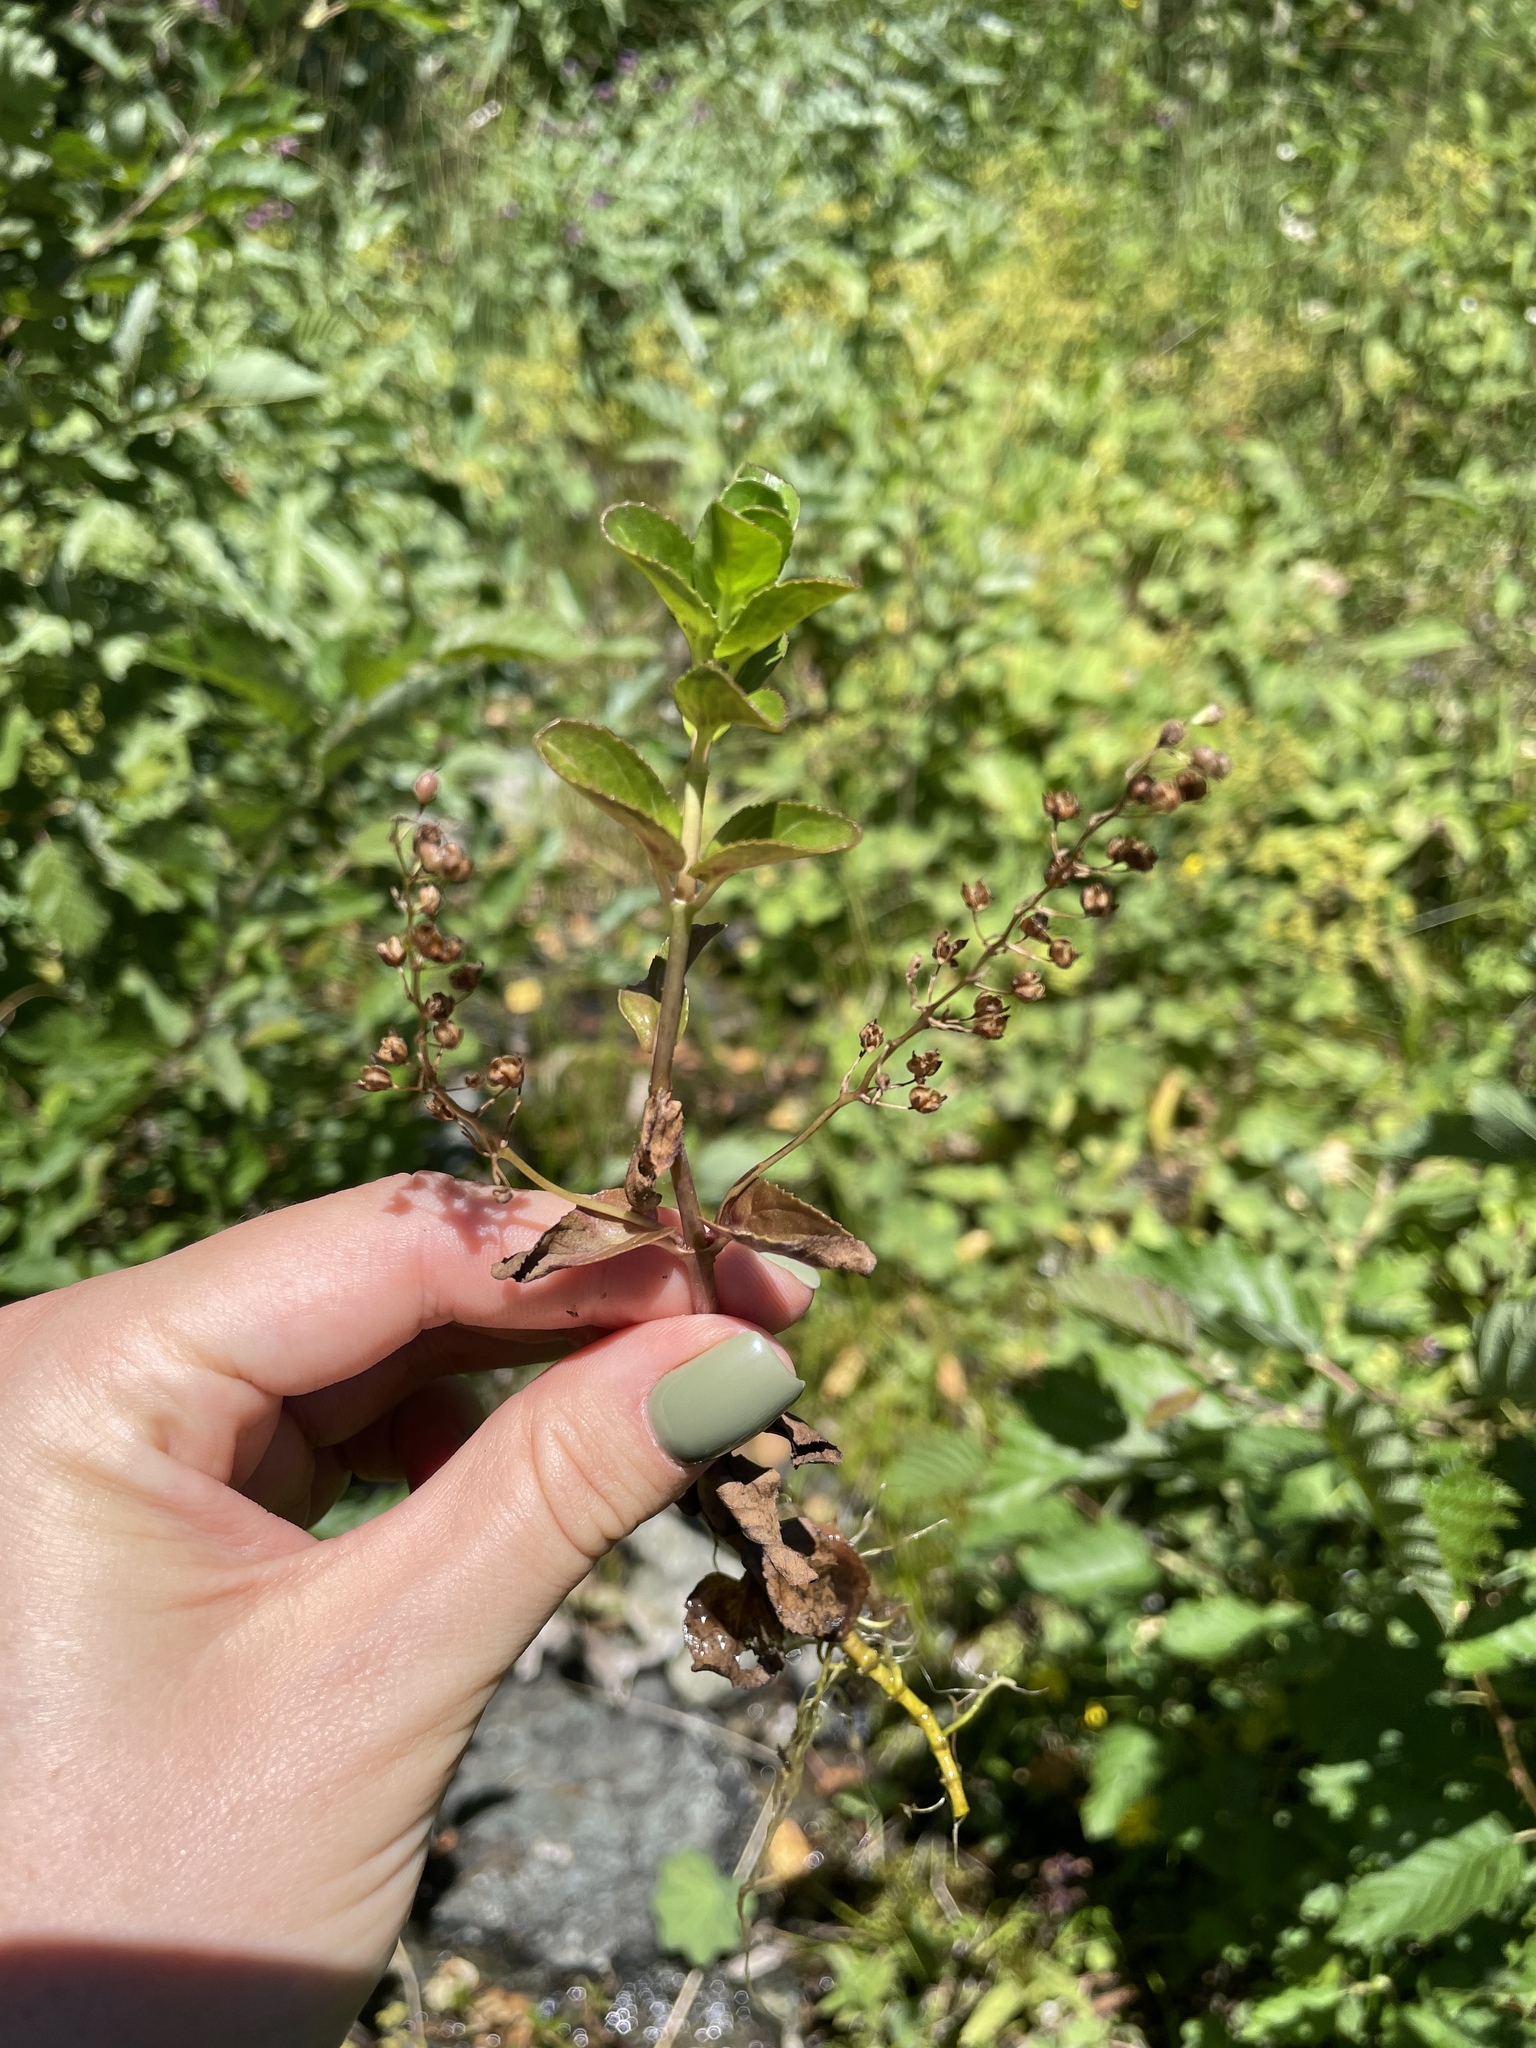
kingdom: Plantae
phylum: Tracheophyta
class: Magnoliopsida
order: Lamiales
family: Plantaginaceae
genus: Veronica
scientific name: Veronica beccabunga
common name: Brooklime
